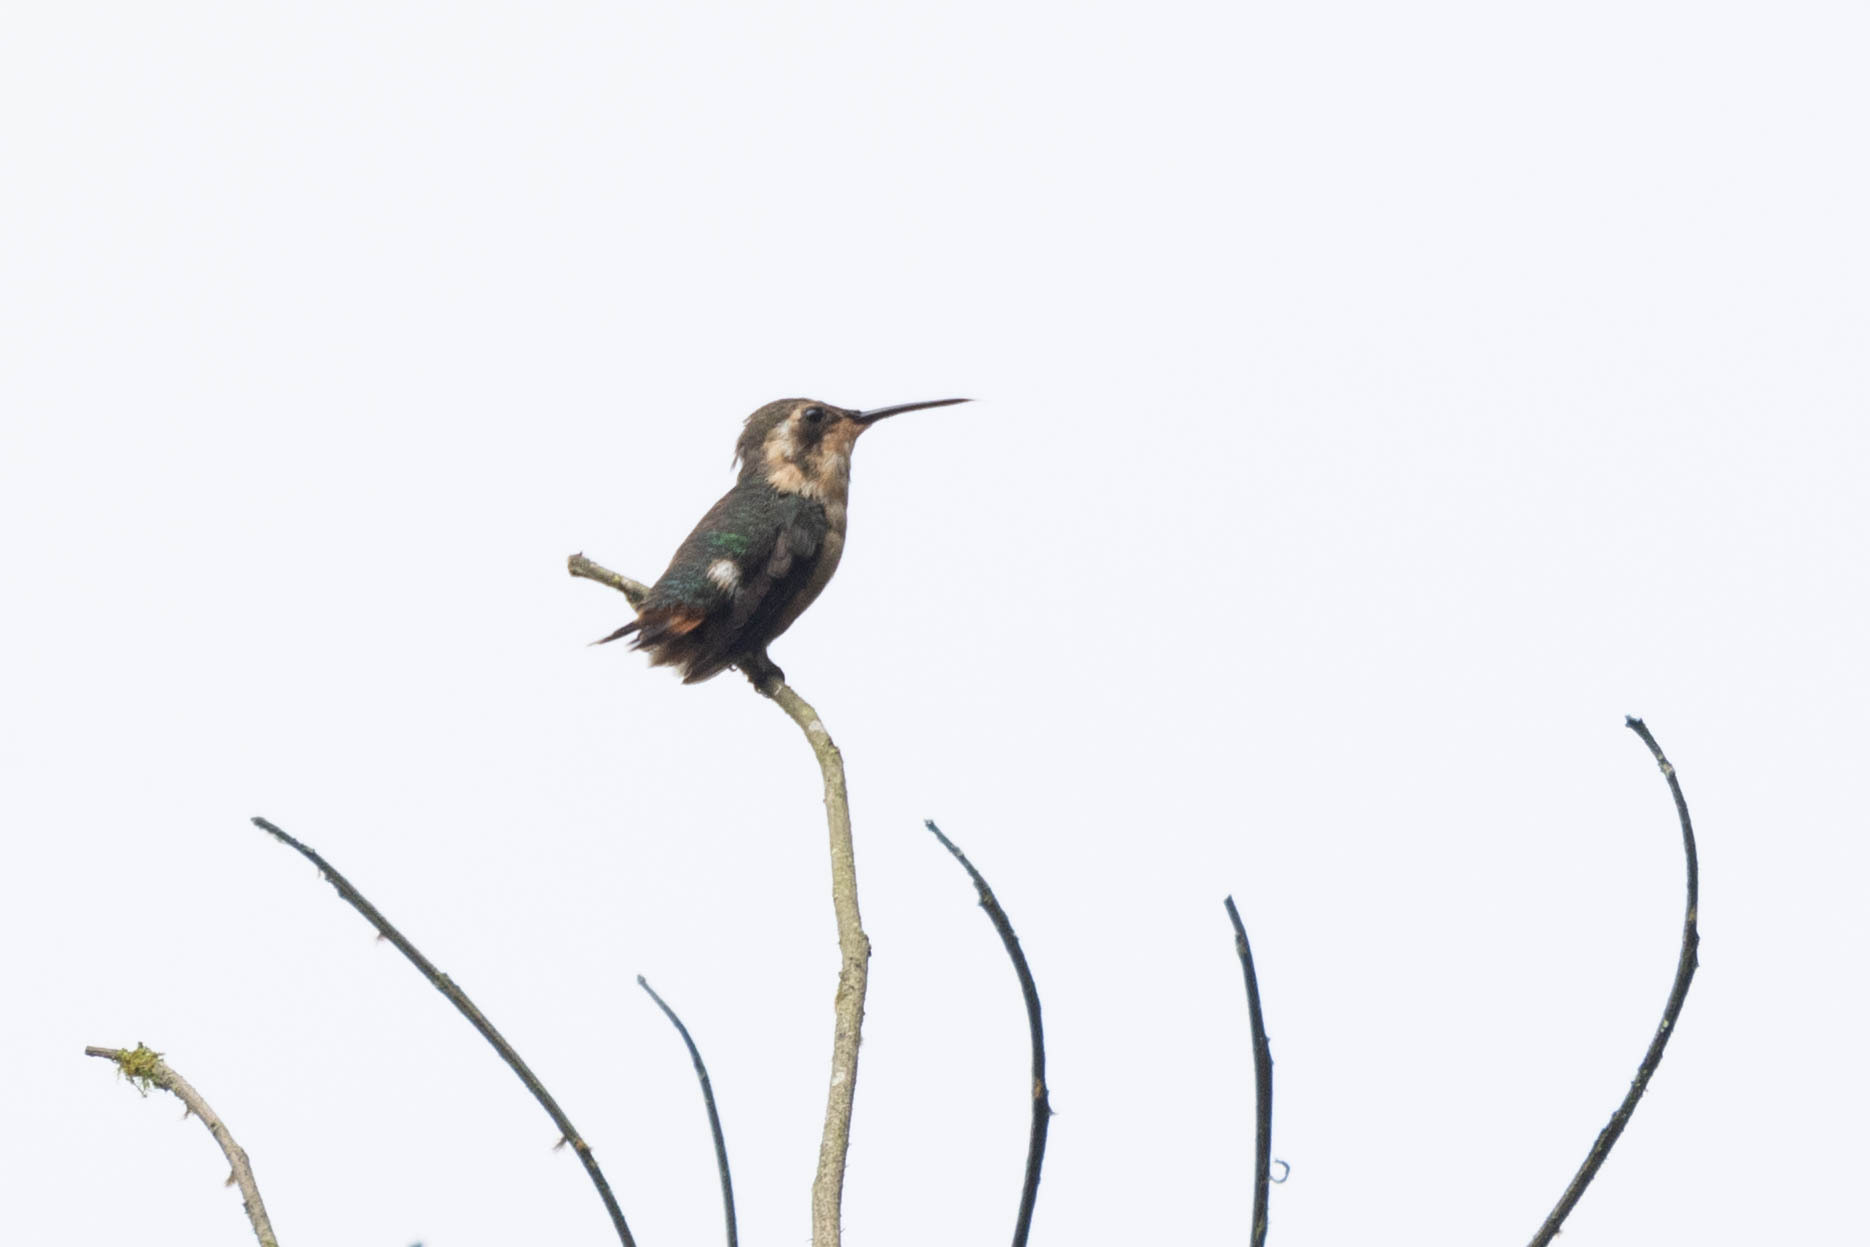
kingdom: Animalia
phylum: Chordata
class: Aves
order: Apodiformes
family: Trochilidae
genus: Chaetocercus
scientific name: Chaetocercus bombus
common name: Little woodstar
